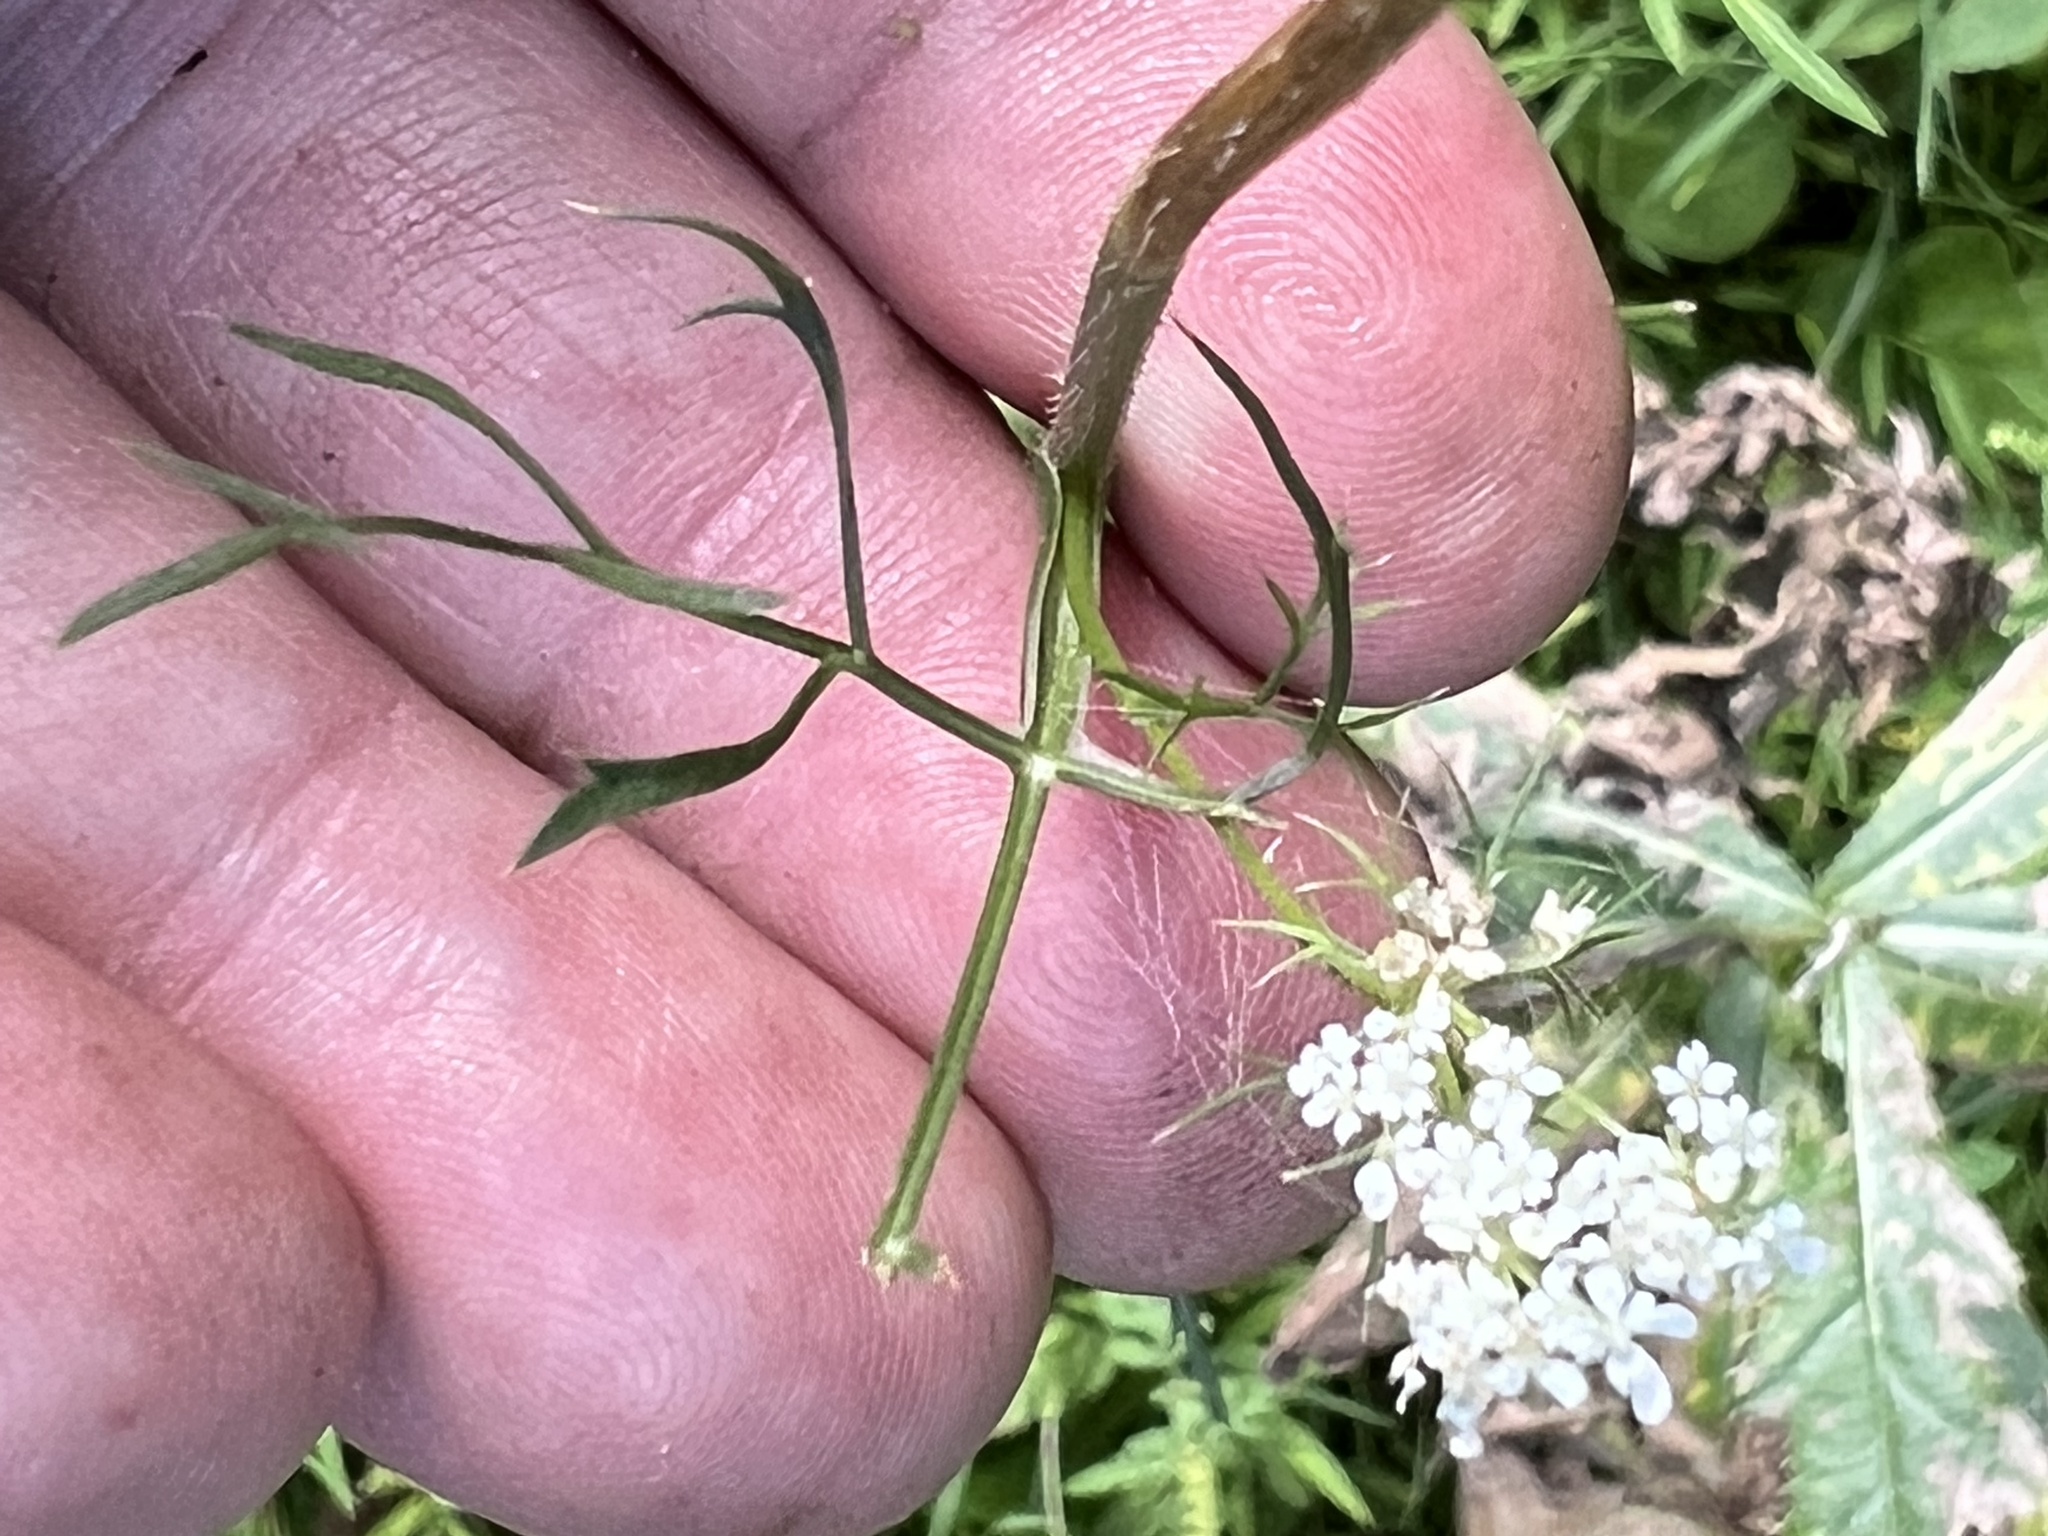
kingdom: Plantae
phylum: Tracheophyta
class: Magnoliopsida
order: Apiales
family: Apiaceae
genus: Daucus
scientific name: Daucus carota
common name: Wild carrot
